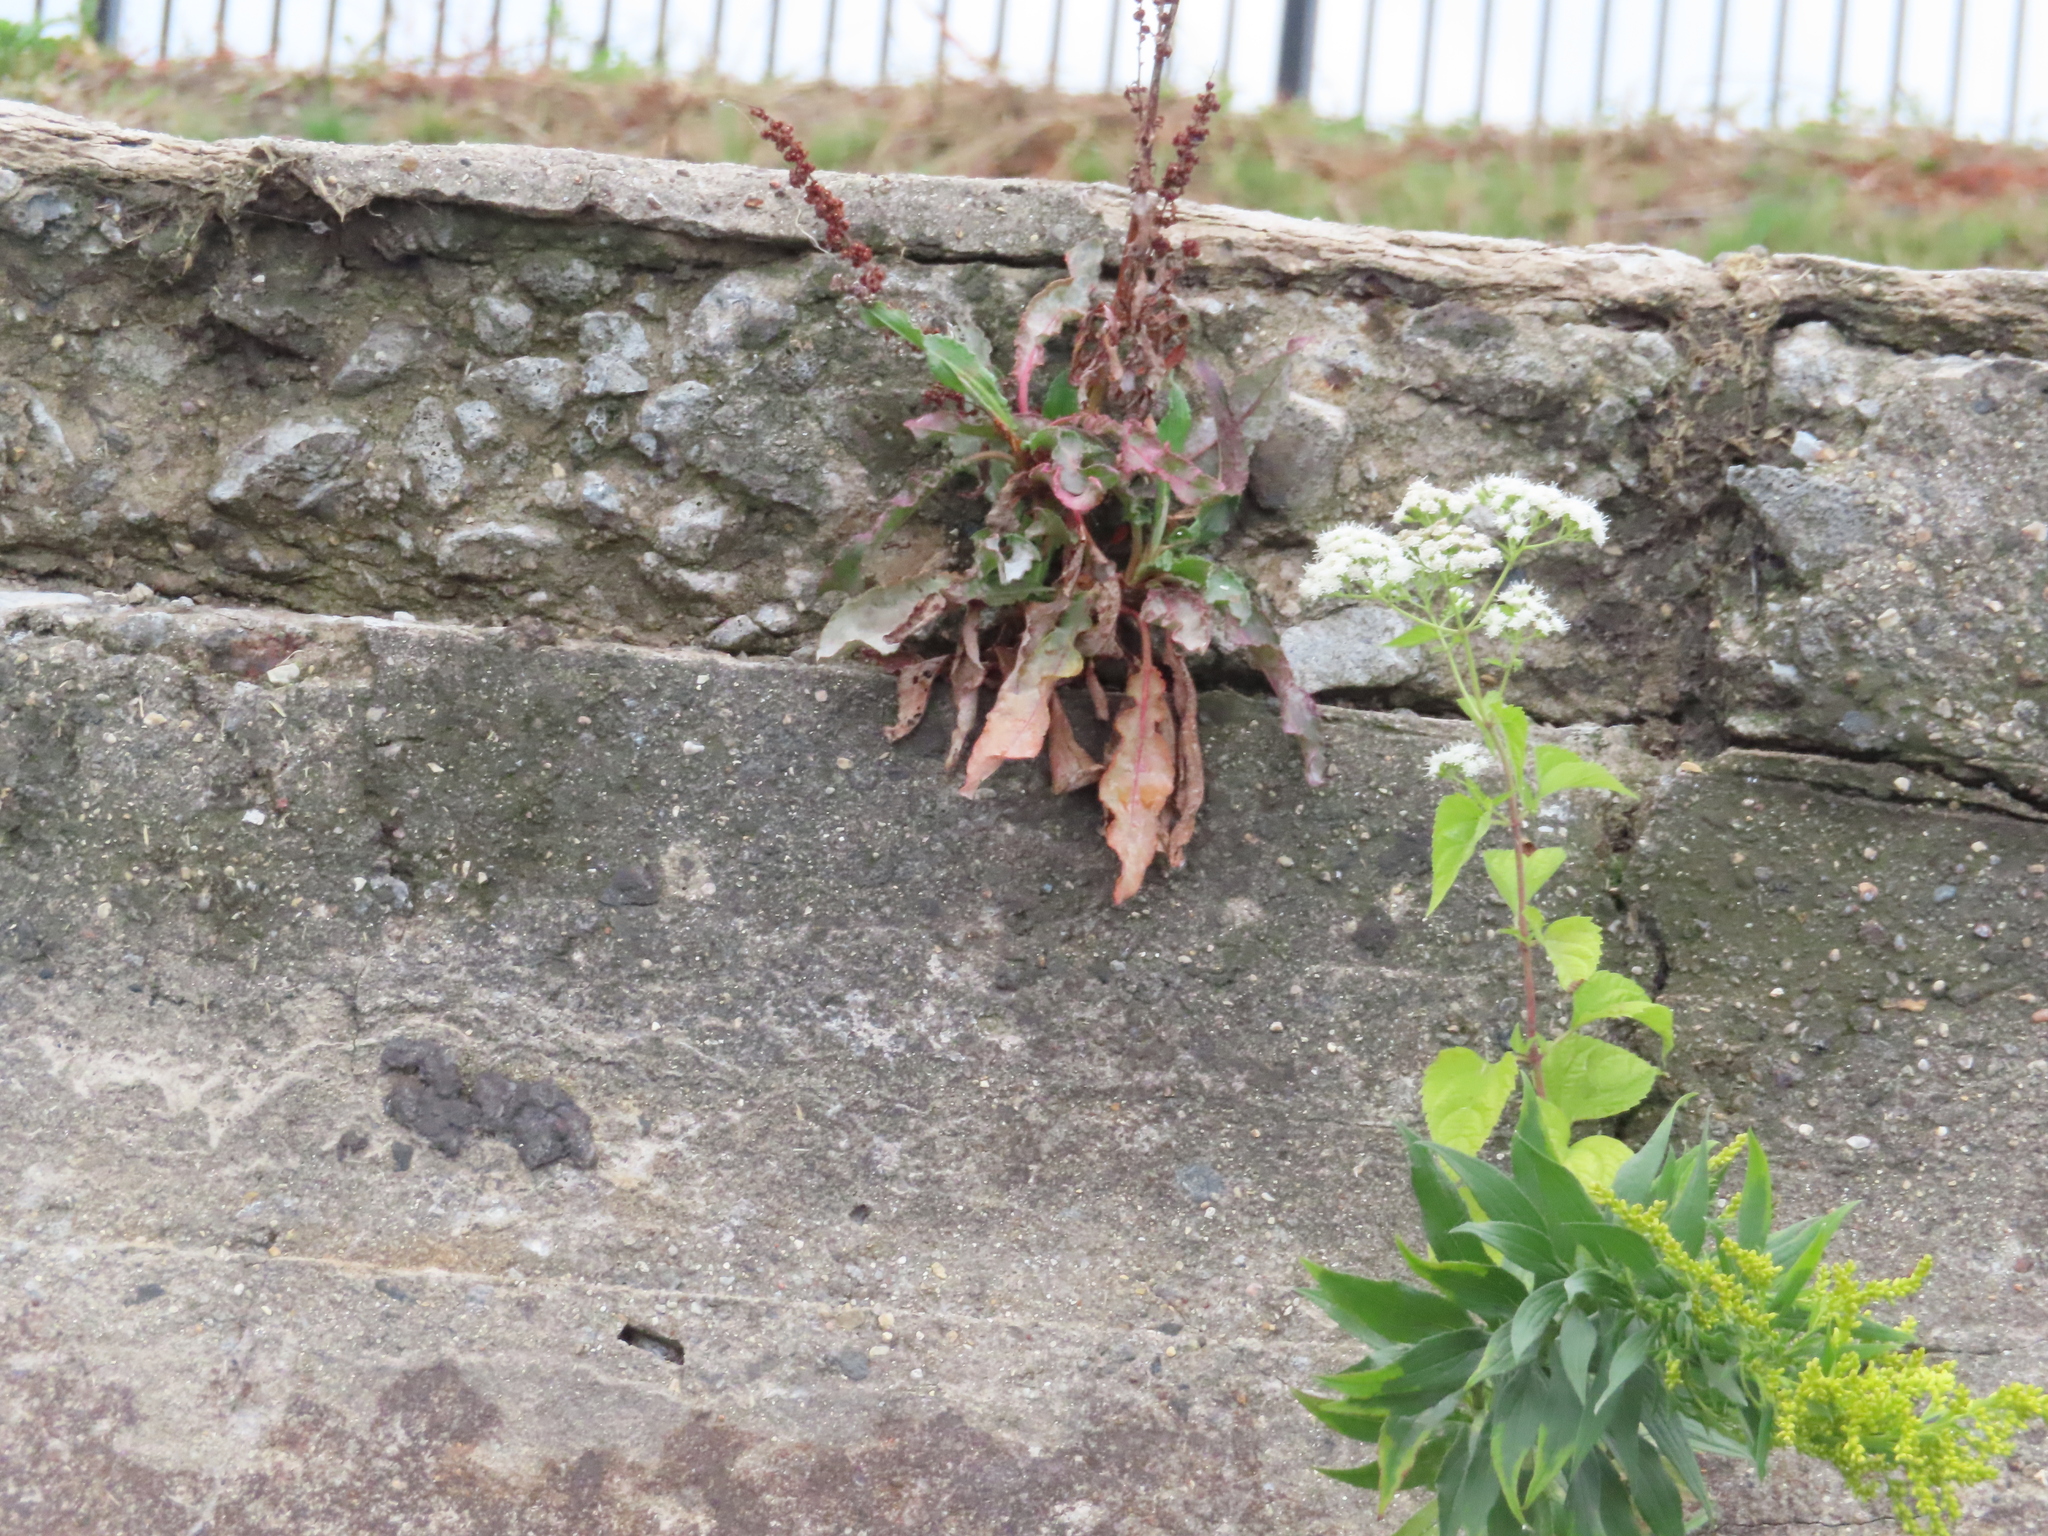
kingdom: Plantae
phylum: Tracheophyta
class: Magnoliopsida
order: Asterales
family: Asteraceae
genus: Ageratina
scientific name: Ageratina altissima
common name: White snakeroot
